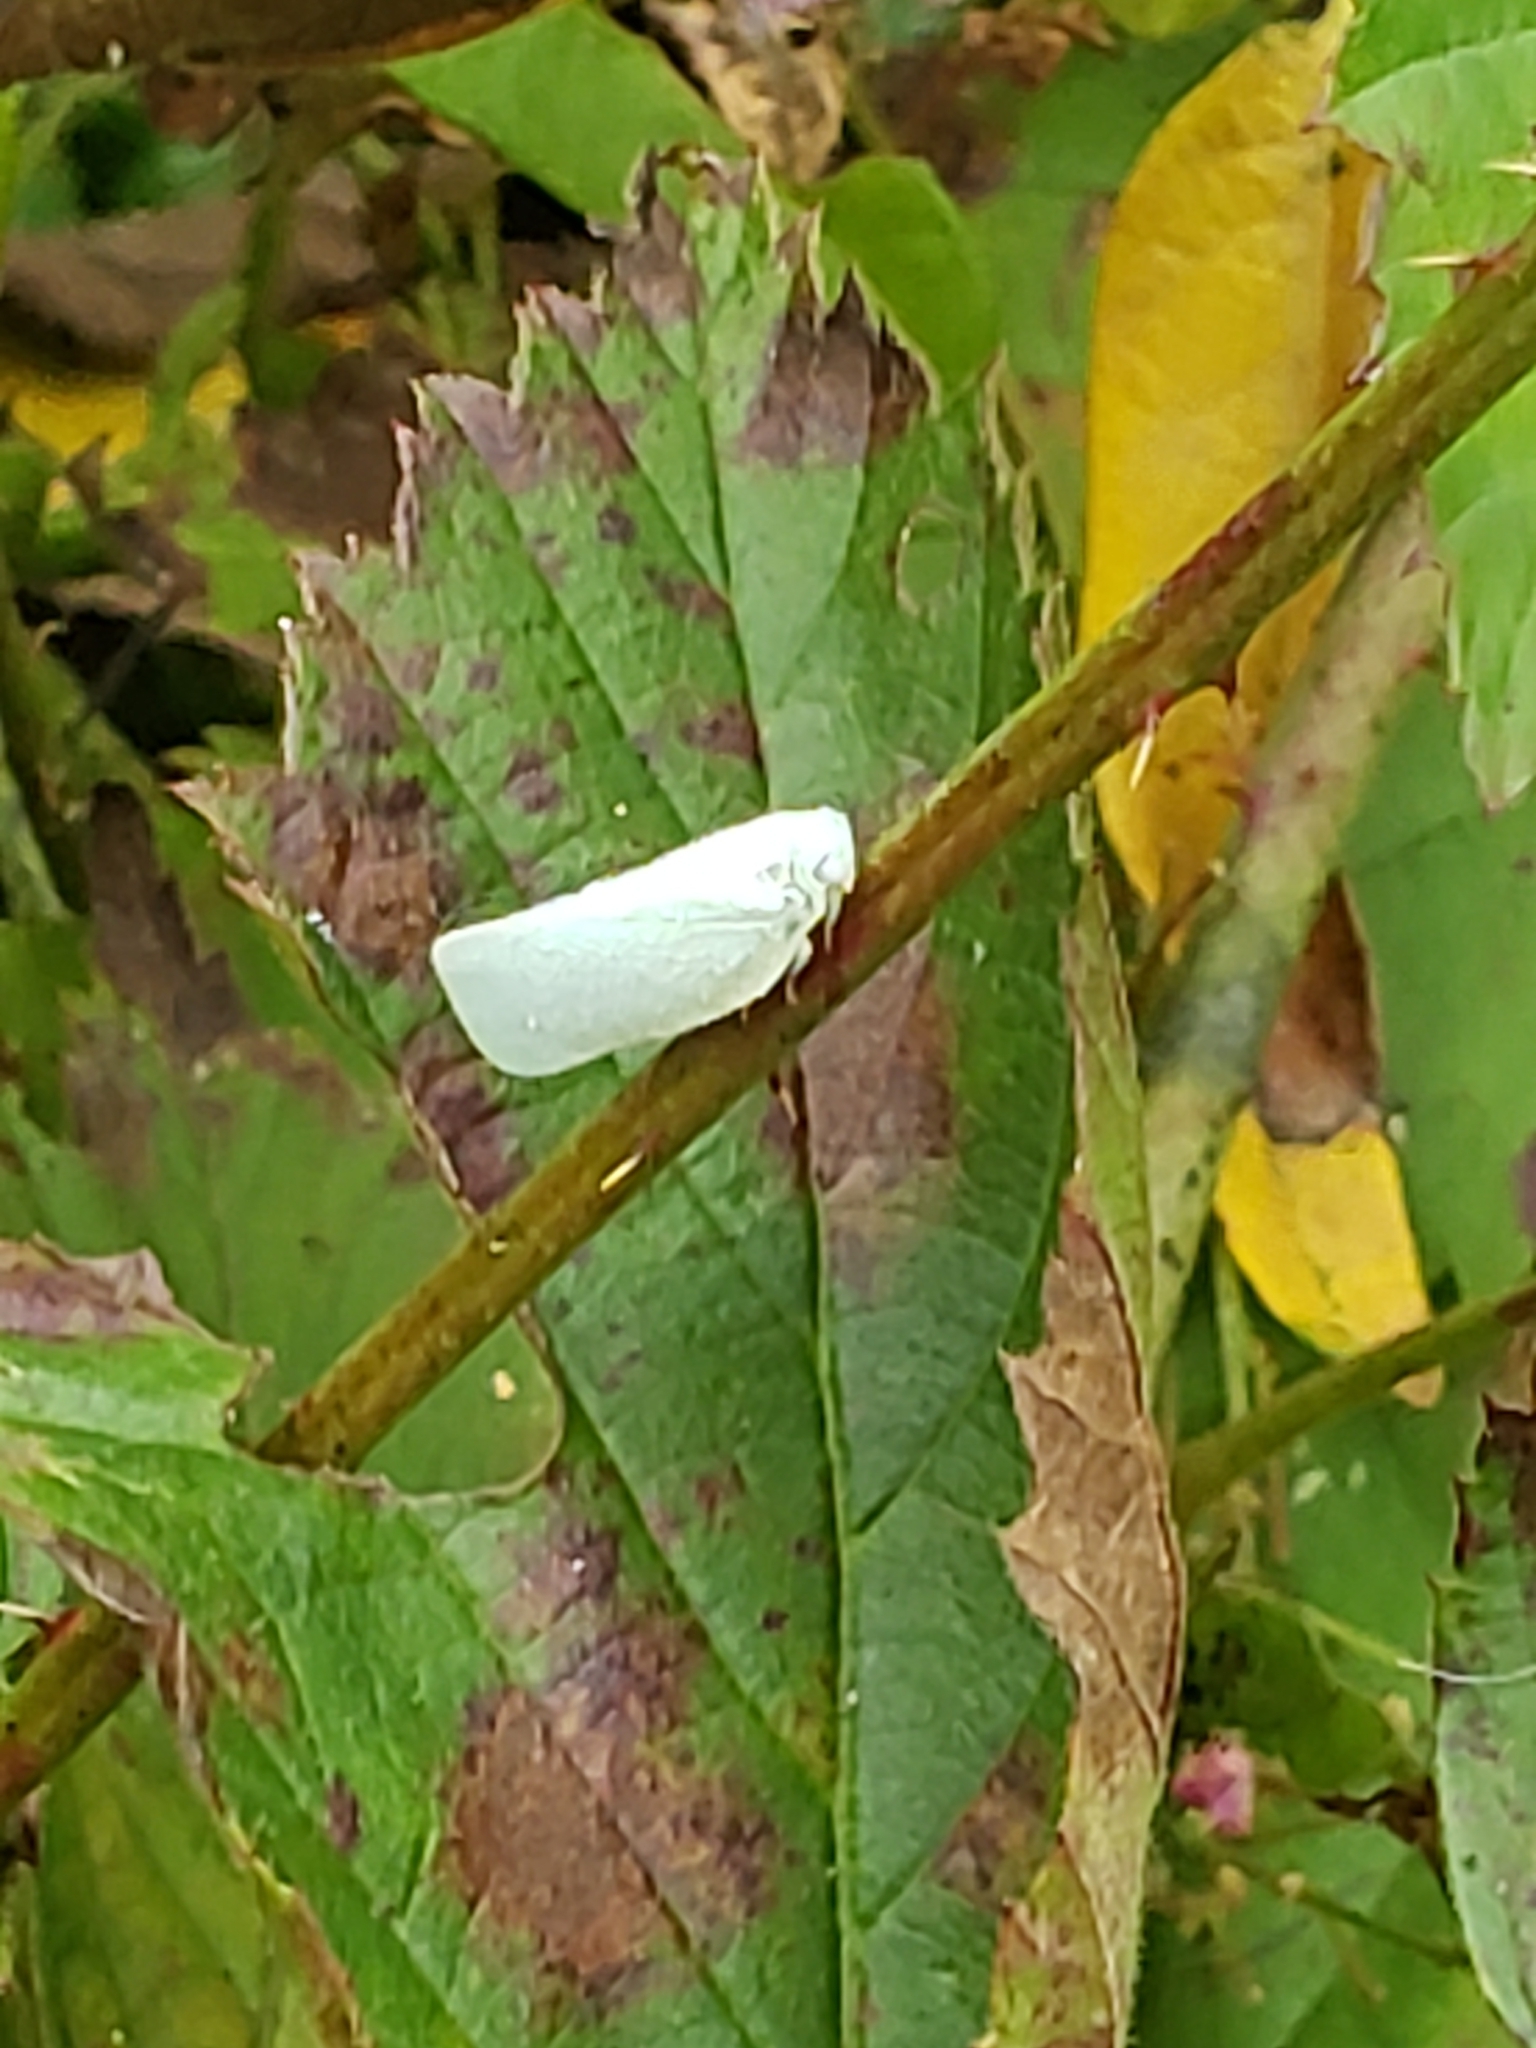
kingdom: Animalia
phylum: Arthropoda
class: Insecta
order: Hemiptera
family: Flatidae
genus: Flatormenis
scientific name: Flatormenis proxima
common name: Northern flatid planthopper
